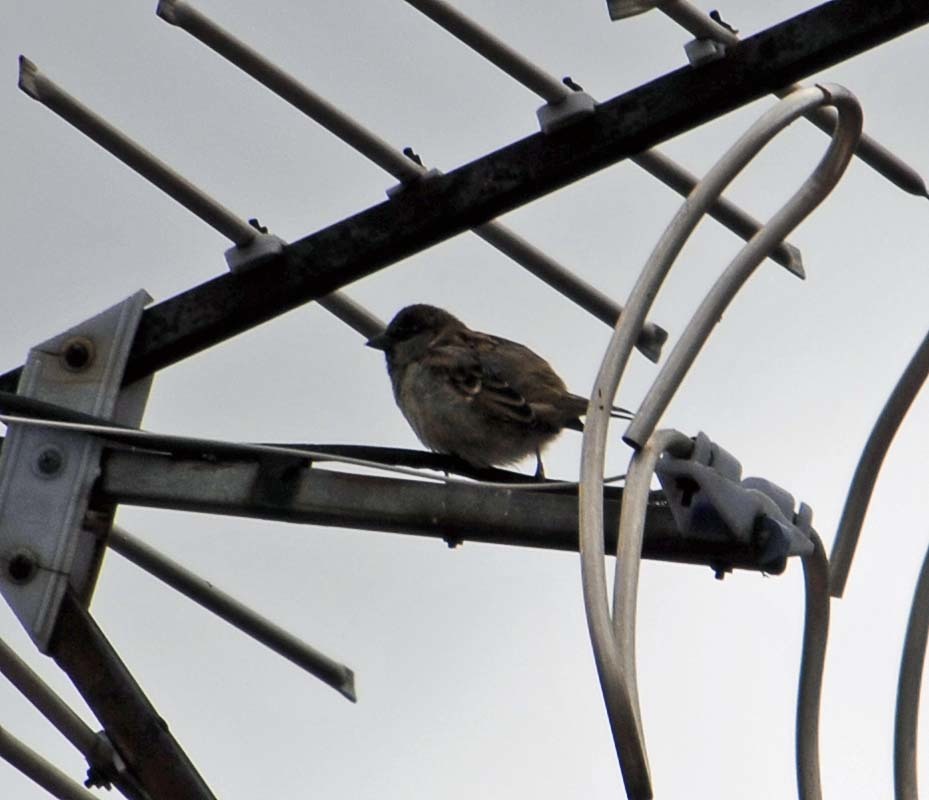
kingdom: Animalia
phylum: Chordata
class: Aves
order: Passeriformes
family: Passeridae
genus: Passer
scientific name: Passer domesticus
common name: House sparrow
